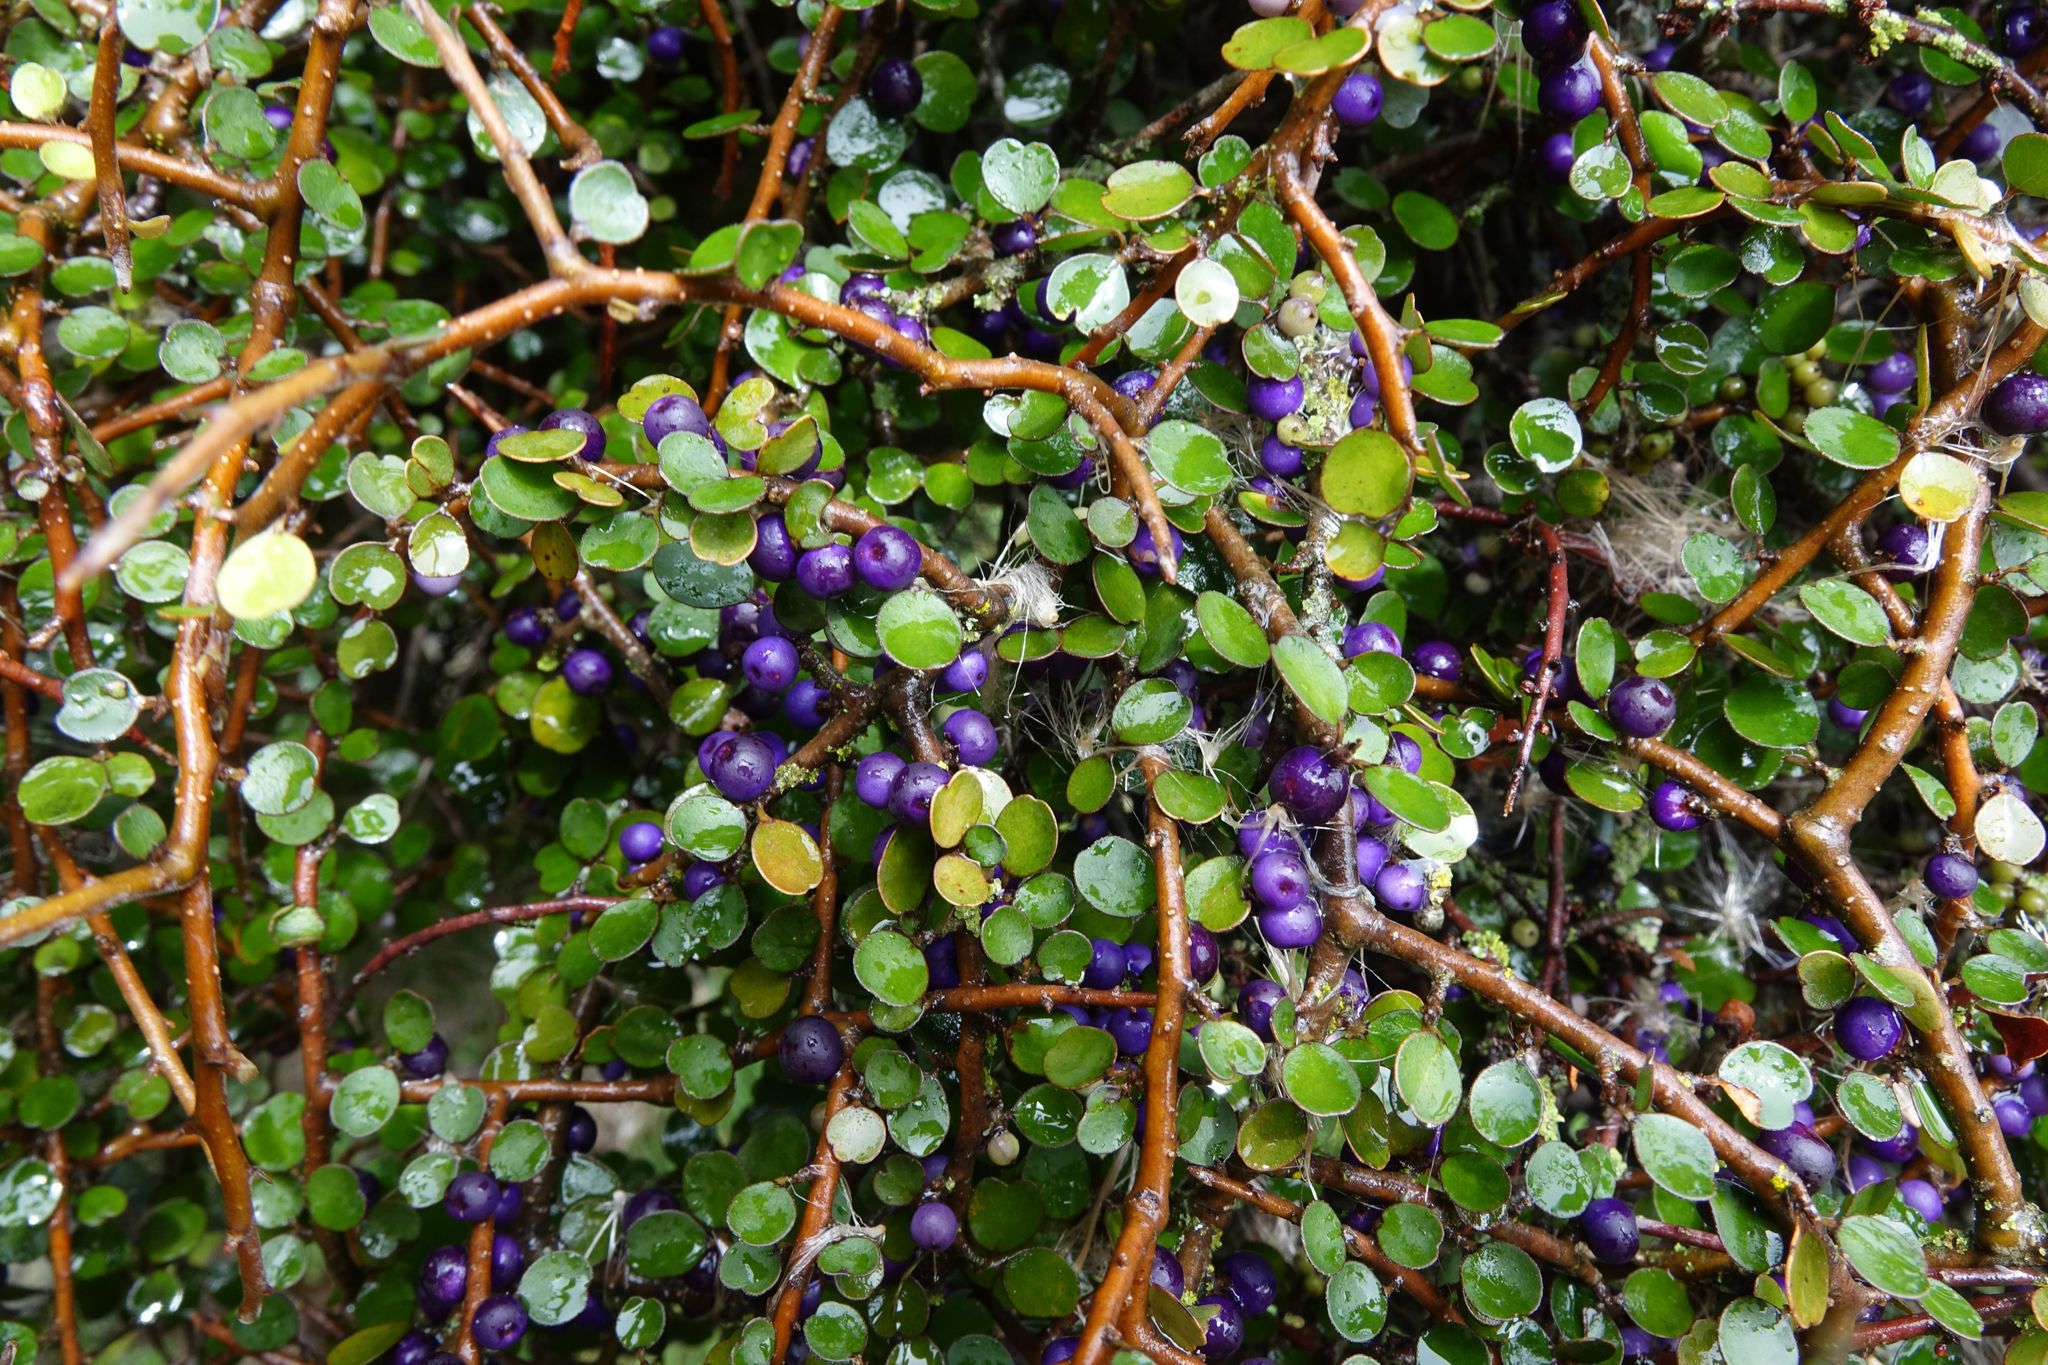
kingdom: Plantae
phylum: Tracheophyta
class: Magnoliopsida
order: Ericales
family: Primulaceae
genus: Myrsine
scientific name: Myrsine divaricata
